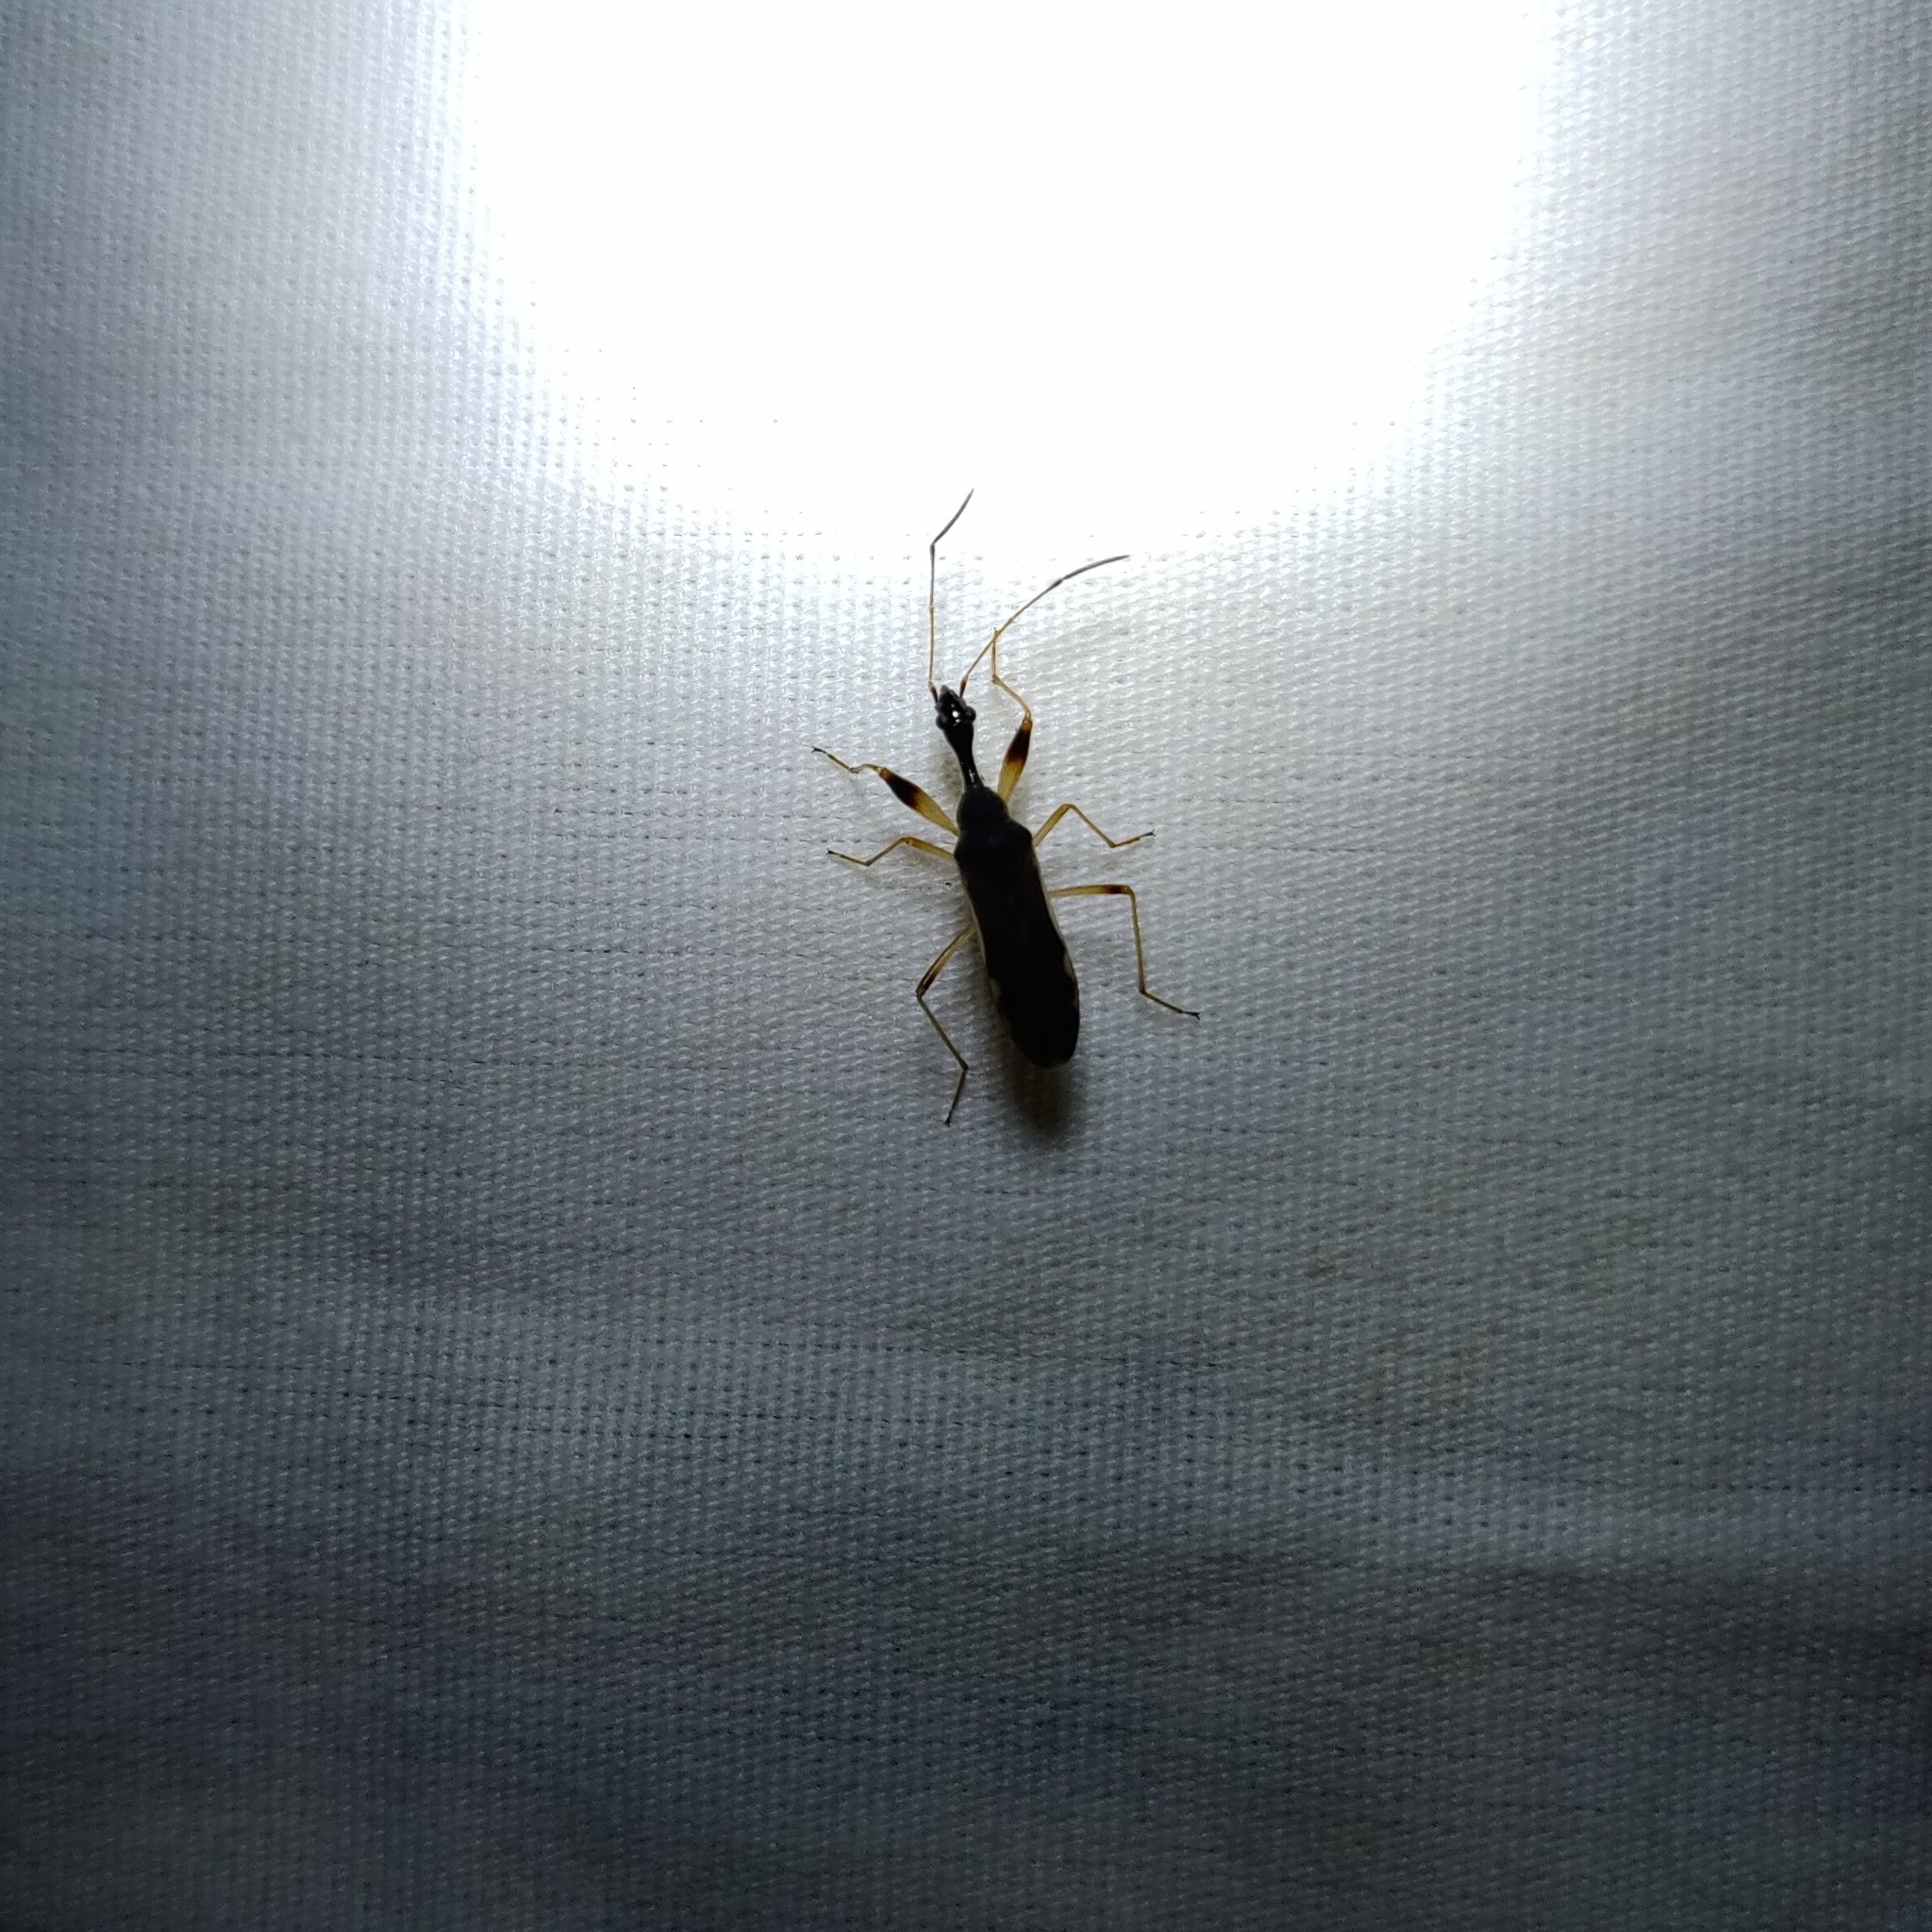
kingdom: Animalia
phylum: Arthropoda
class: Insecta
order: Hemiptera
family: Rhyparochromidae
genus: Myodocha
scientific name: Myodocha serripes
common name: Long-necked seed bug
